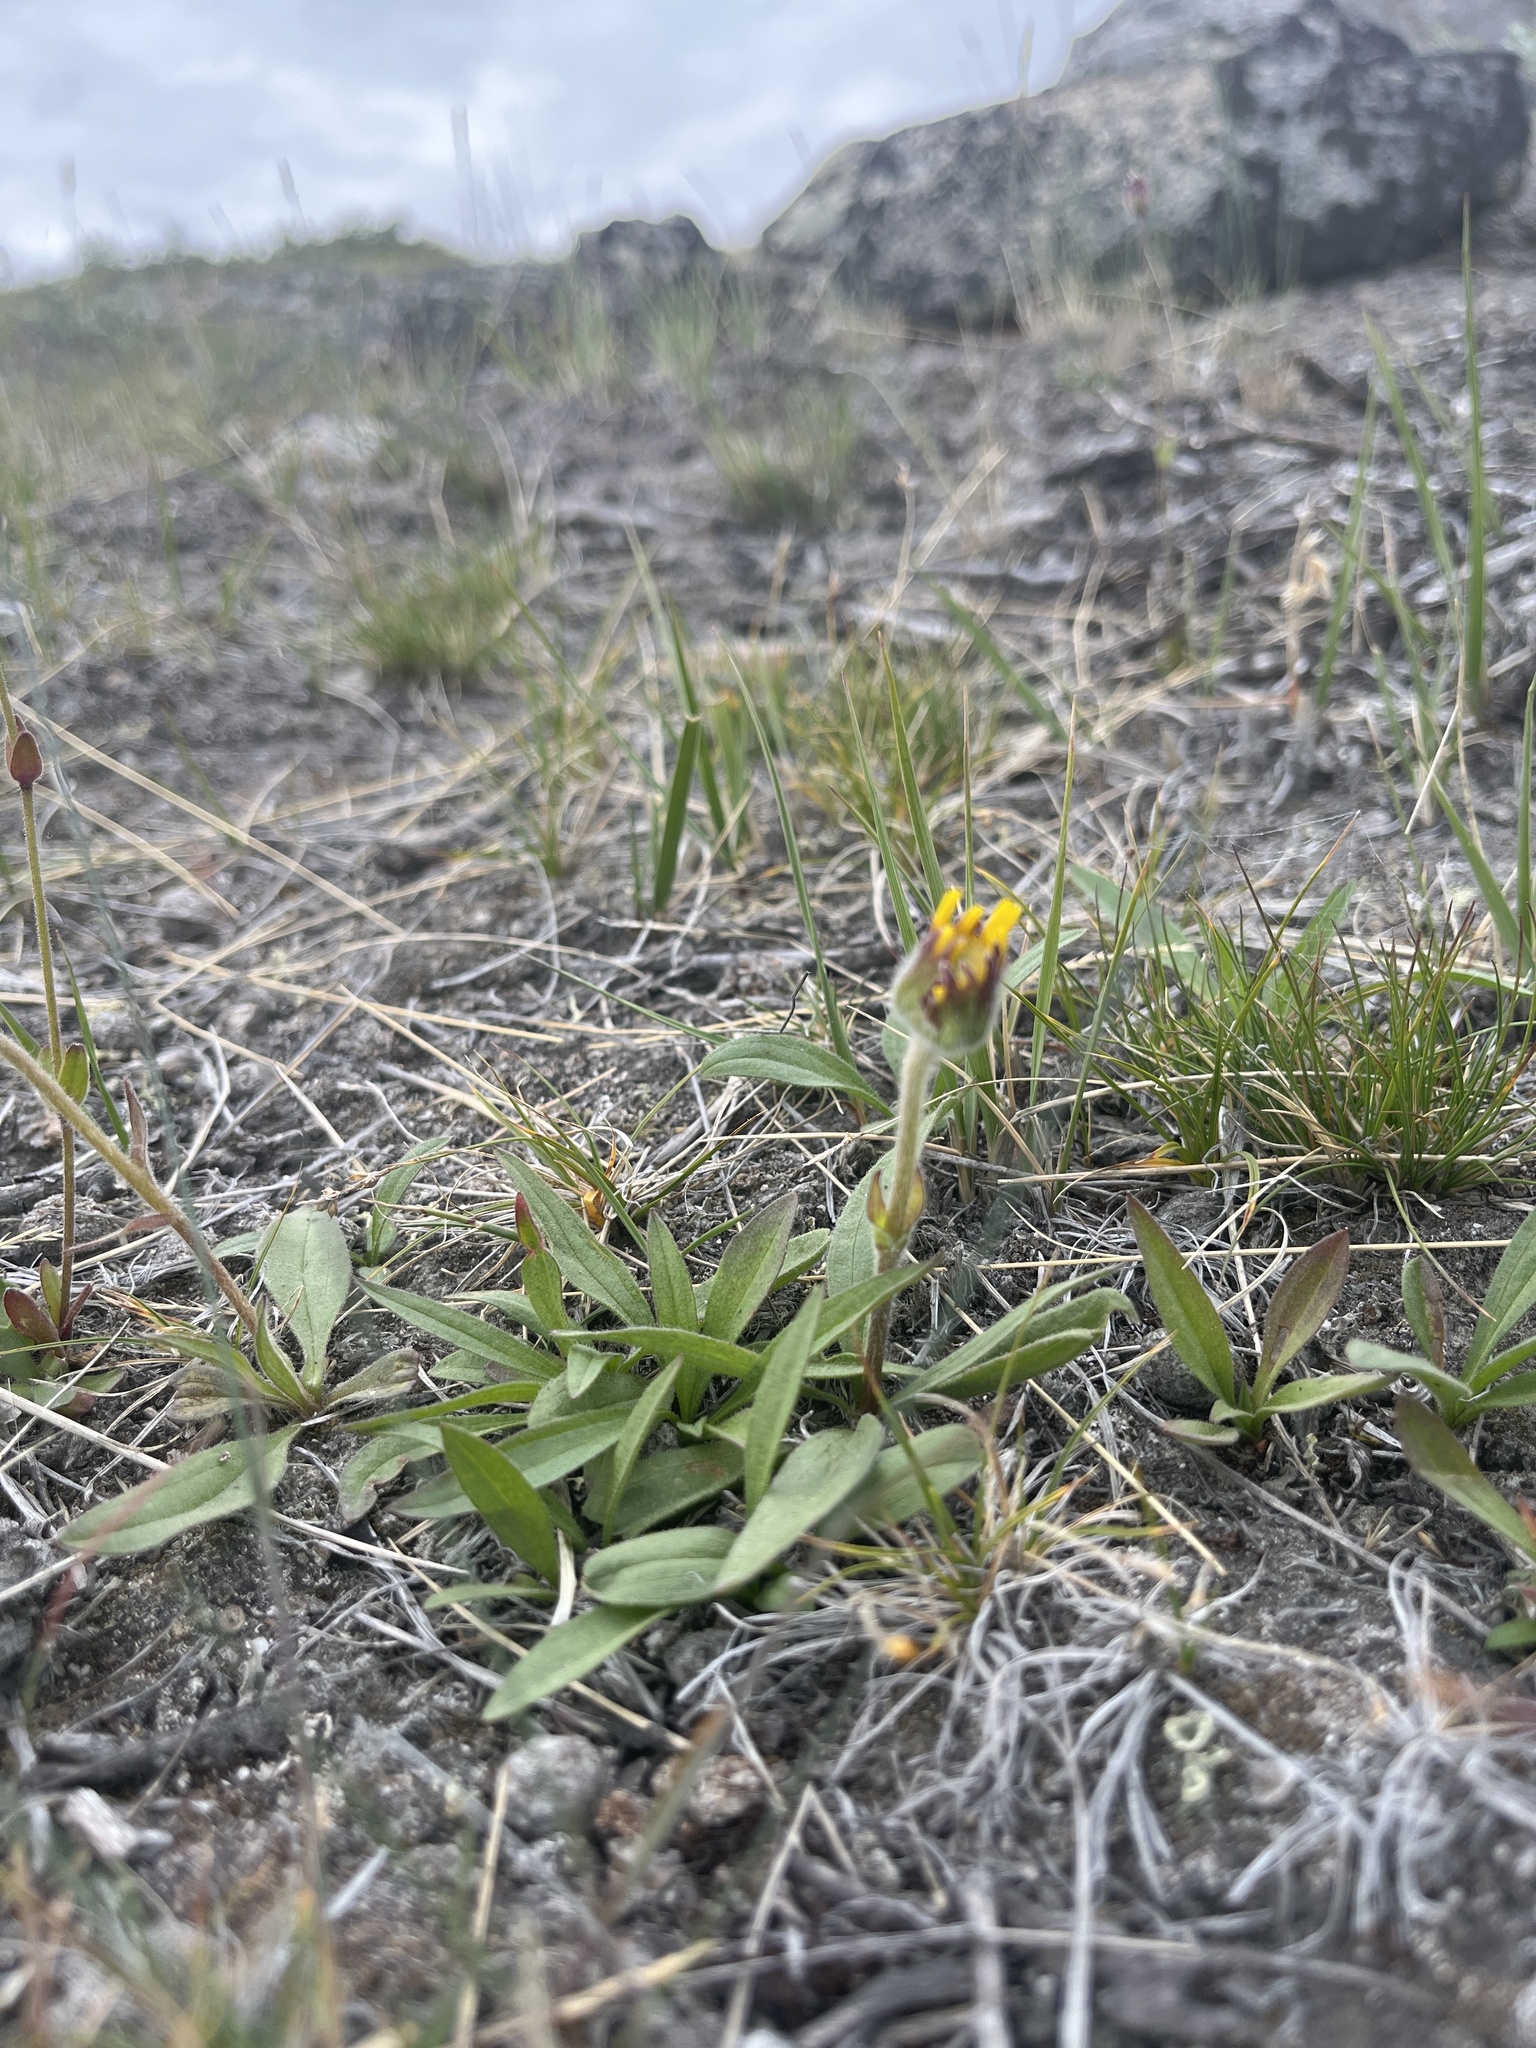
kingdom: Plantae
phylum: Tracheophyta
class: Magnoliopsida
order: Asterales
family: Asteraceae
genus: Arnica
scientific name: Arnica angustifolia
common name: Arctic arnica
